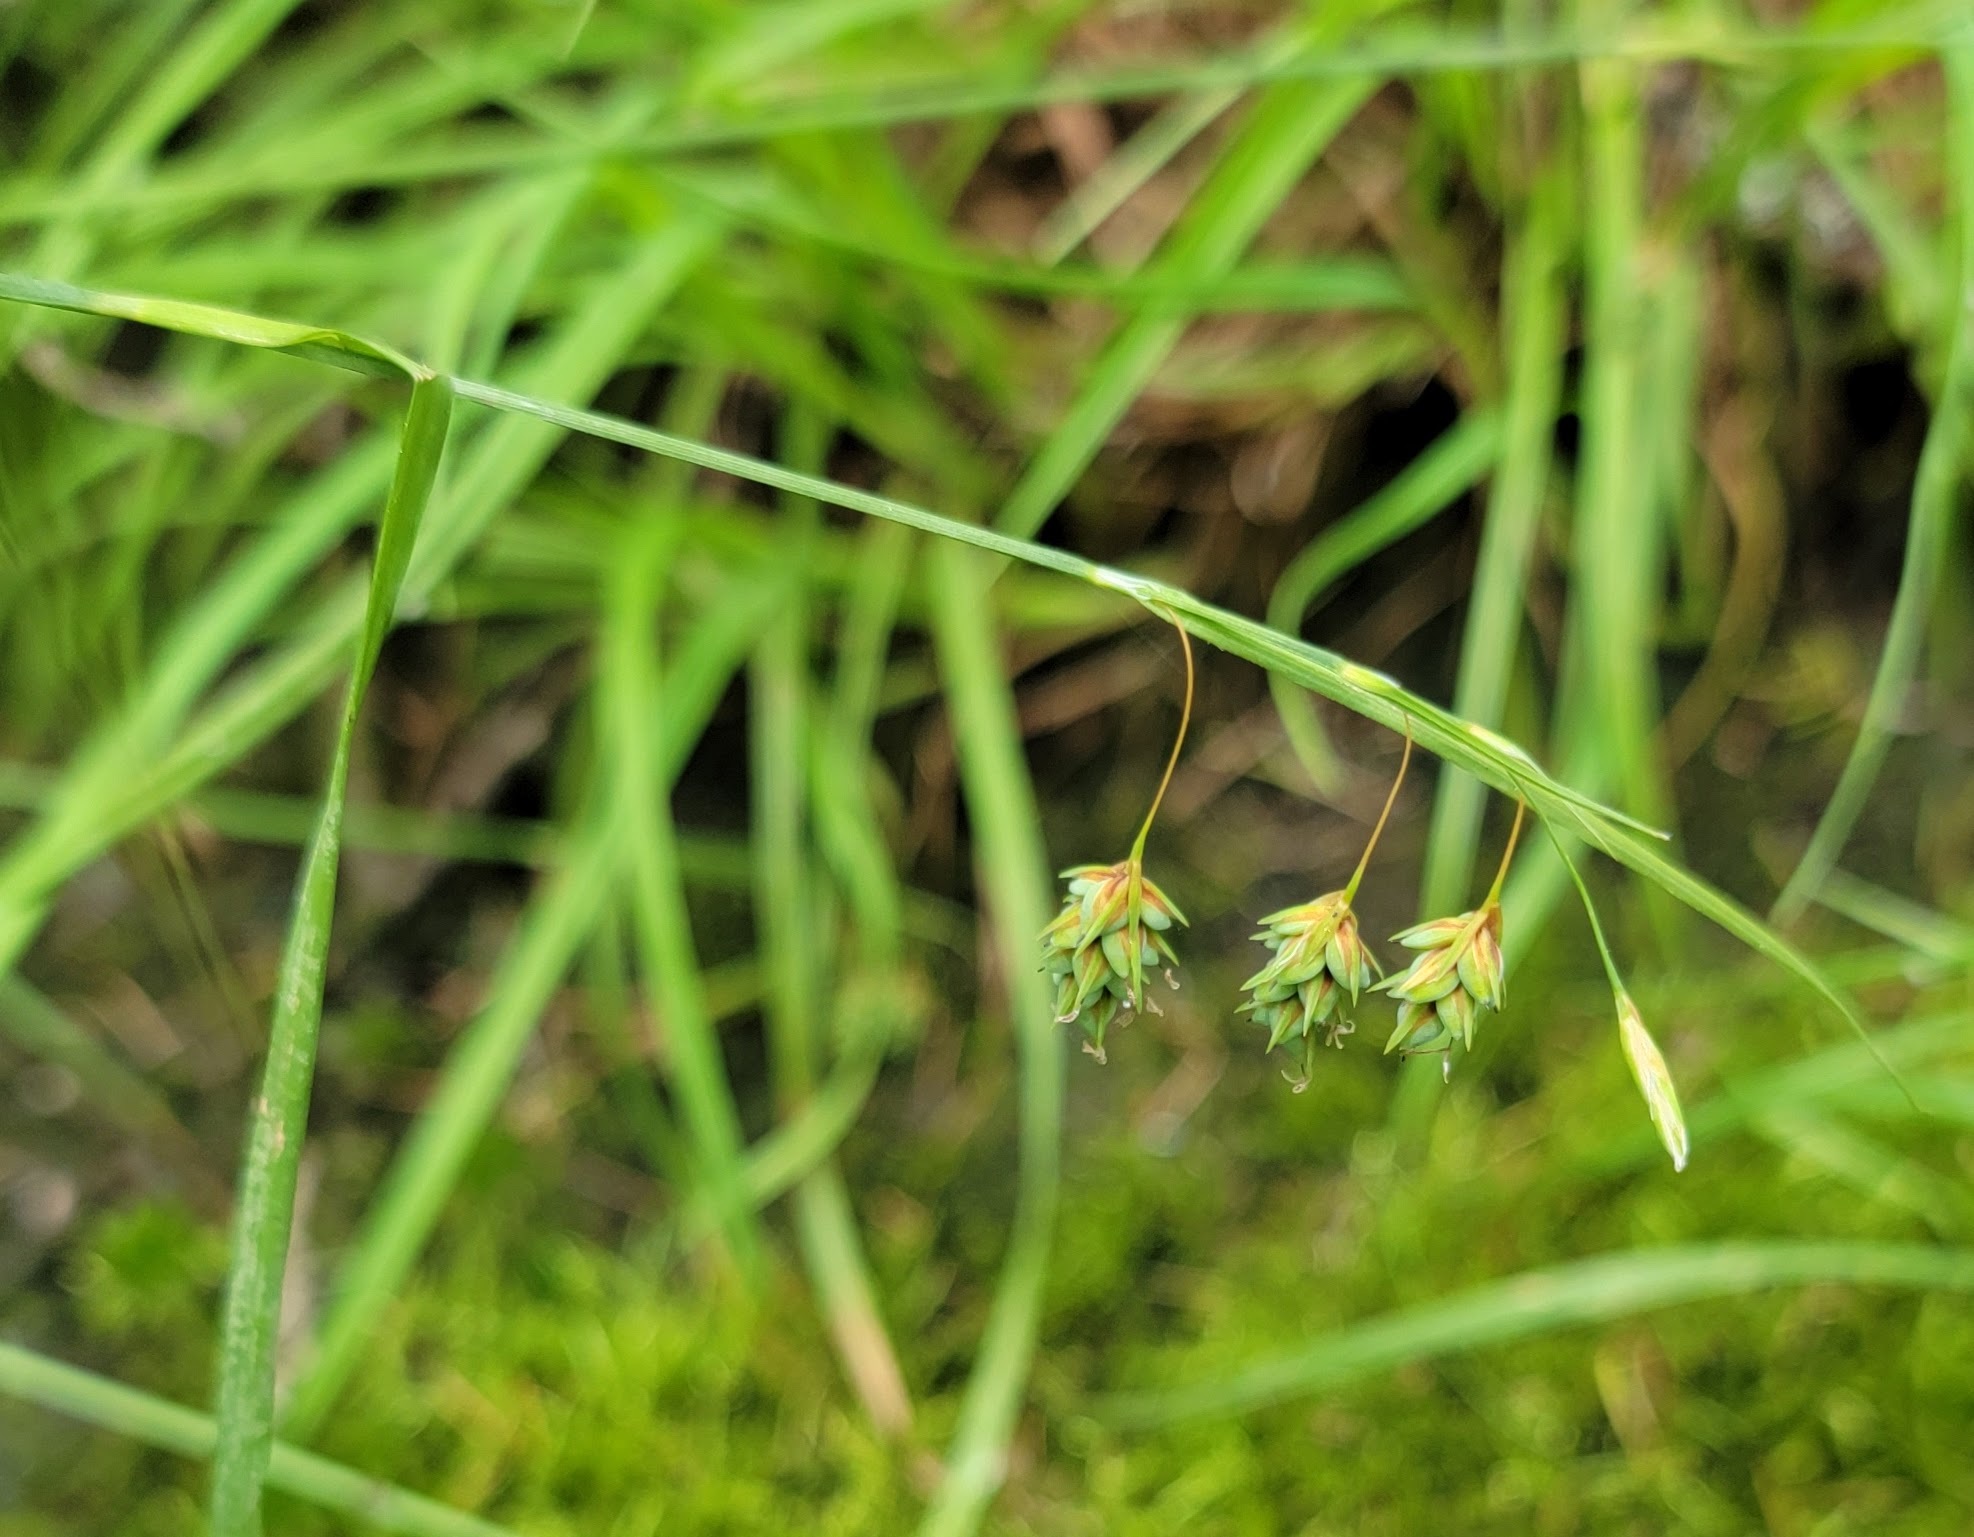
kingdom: Plantae
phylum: Tracheophyta
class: Liliopsida
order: Poales
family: Cyperaceae
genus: Carex
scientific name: Carex magellanica
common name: Bog sedge
